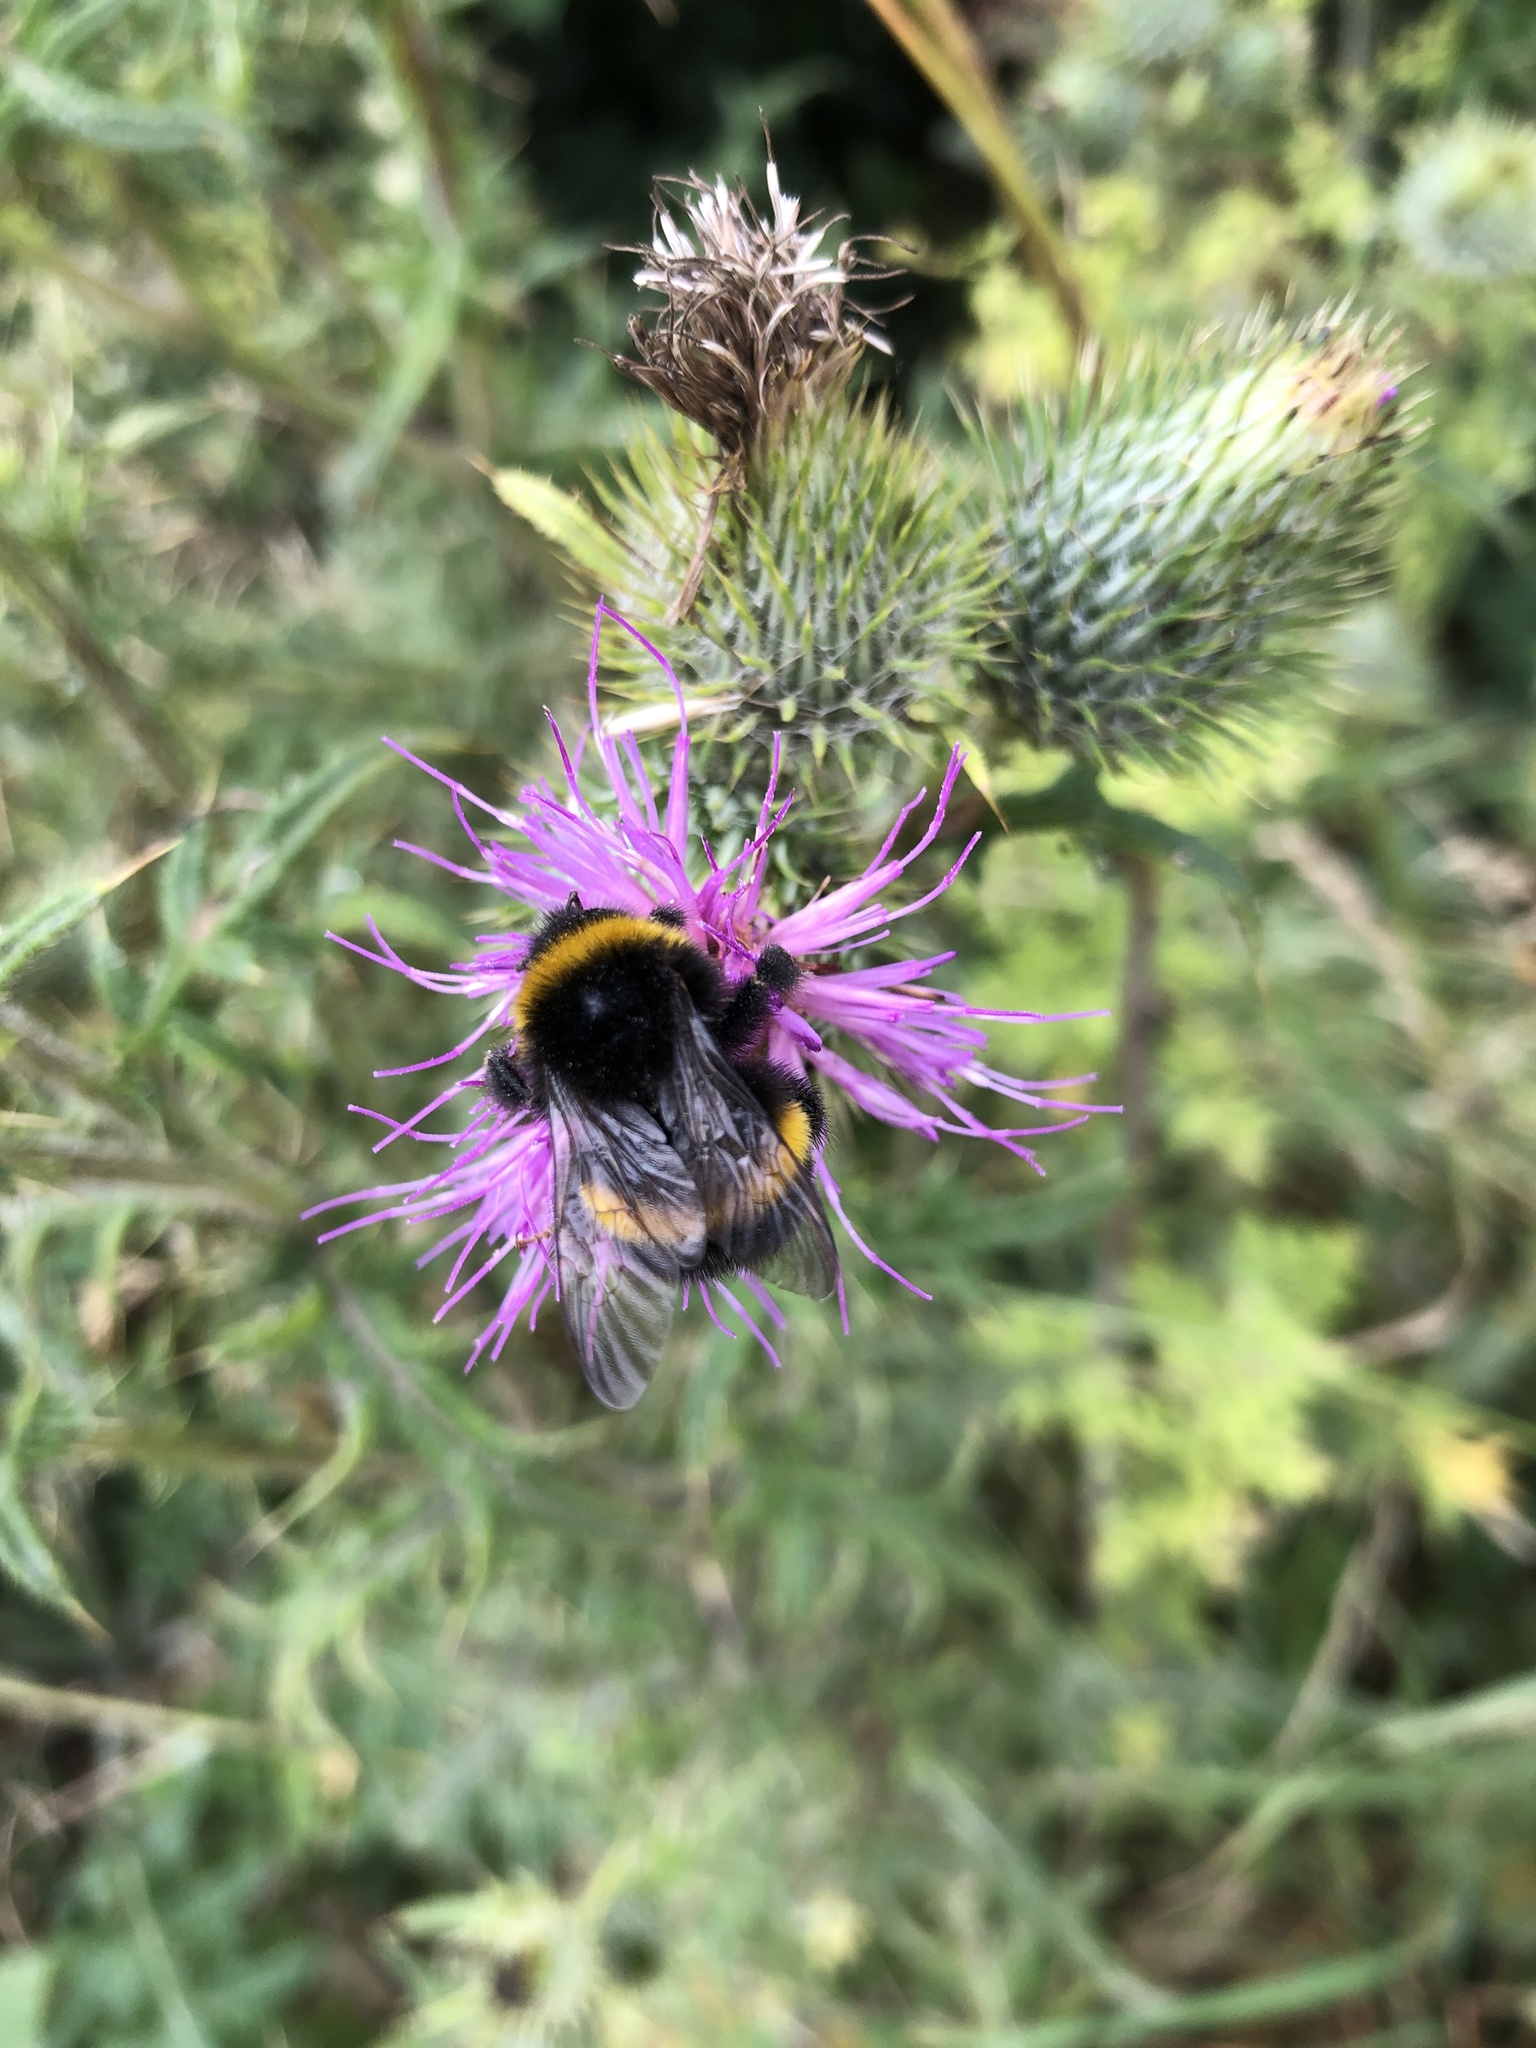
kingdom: Animalia
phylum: Arthropoda
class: Insecta
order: Hymenoptera
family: Apidae
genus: Bombus
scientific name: Bombus terrestris
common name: Buff-tailed bumblebee
